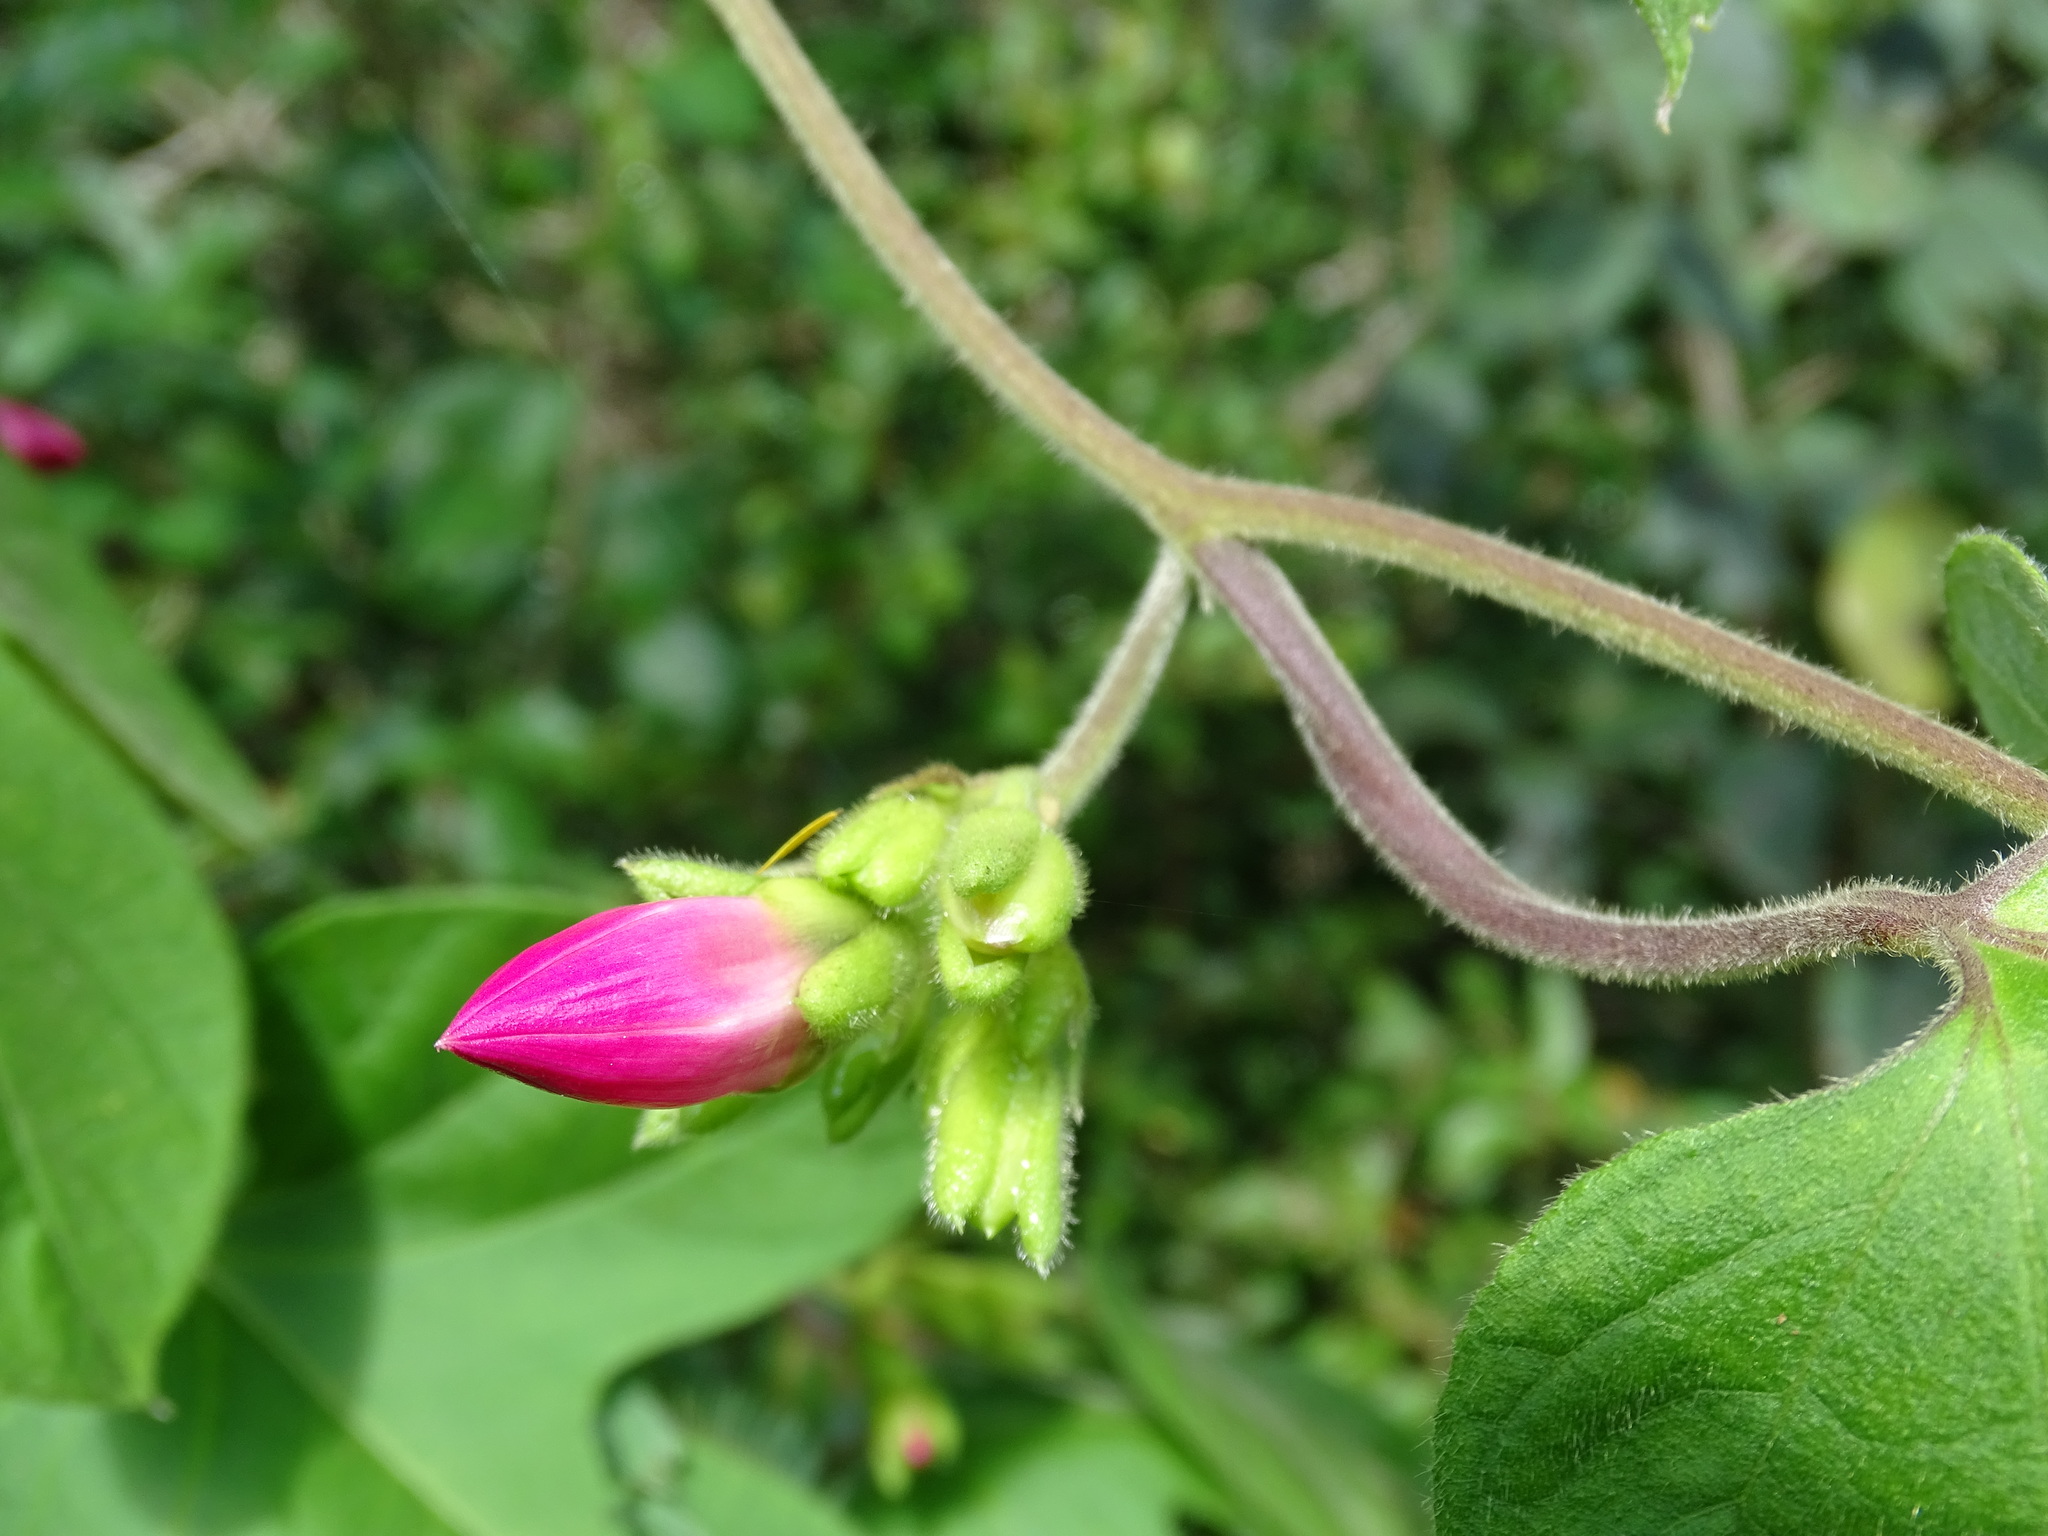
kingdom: Plantae
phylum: Tracheophyta
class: Magnoliopsida
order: Solanales
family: Convolvulaceae
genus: Ipomoea
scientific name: Ipomoea peteri
